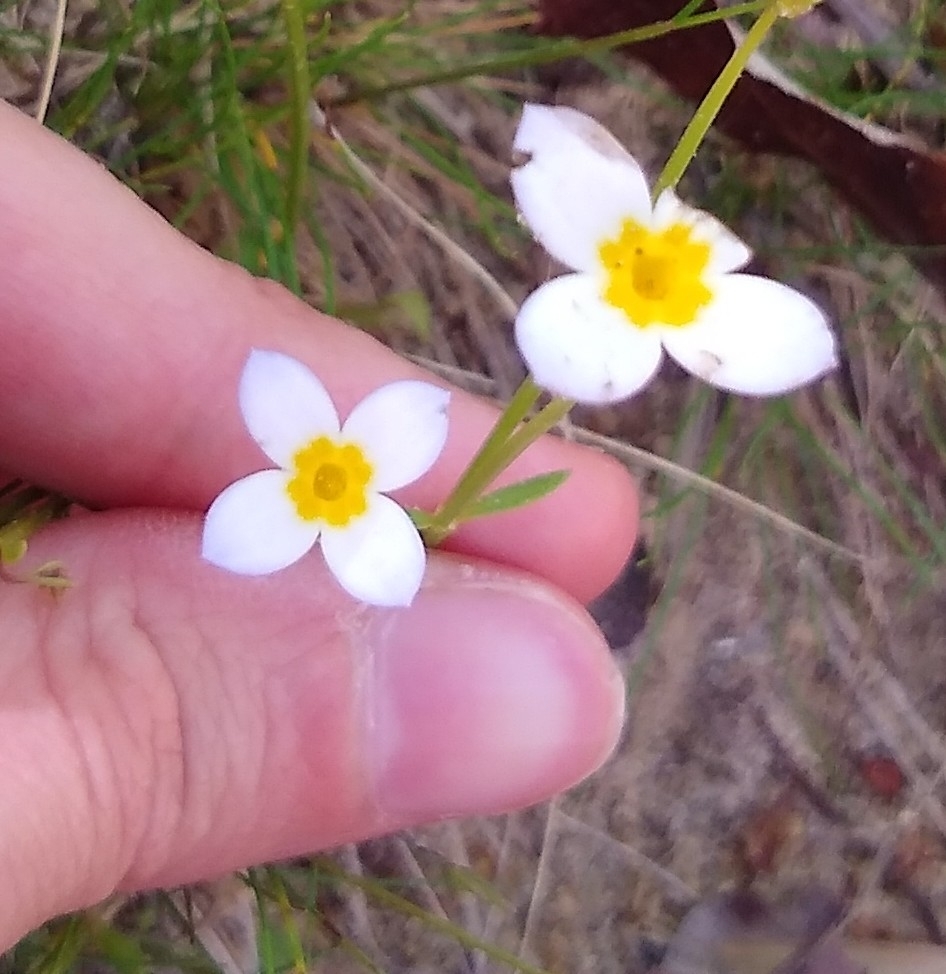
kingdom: Plantae
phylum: Tracheophyta
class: Magnoliopsida
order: Gentianales
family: Rubiaceae
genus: Houstonia
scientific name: Houstonia caerulea
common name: Bluets
